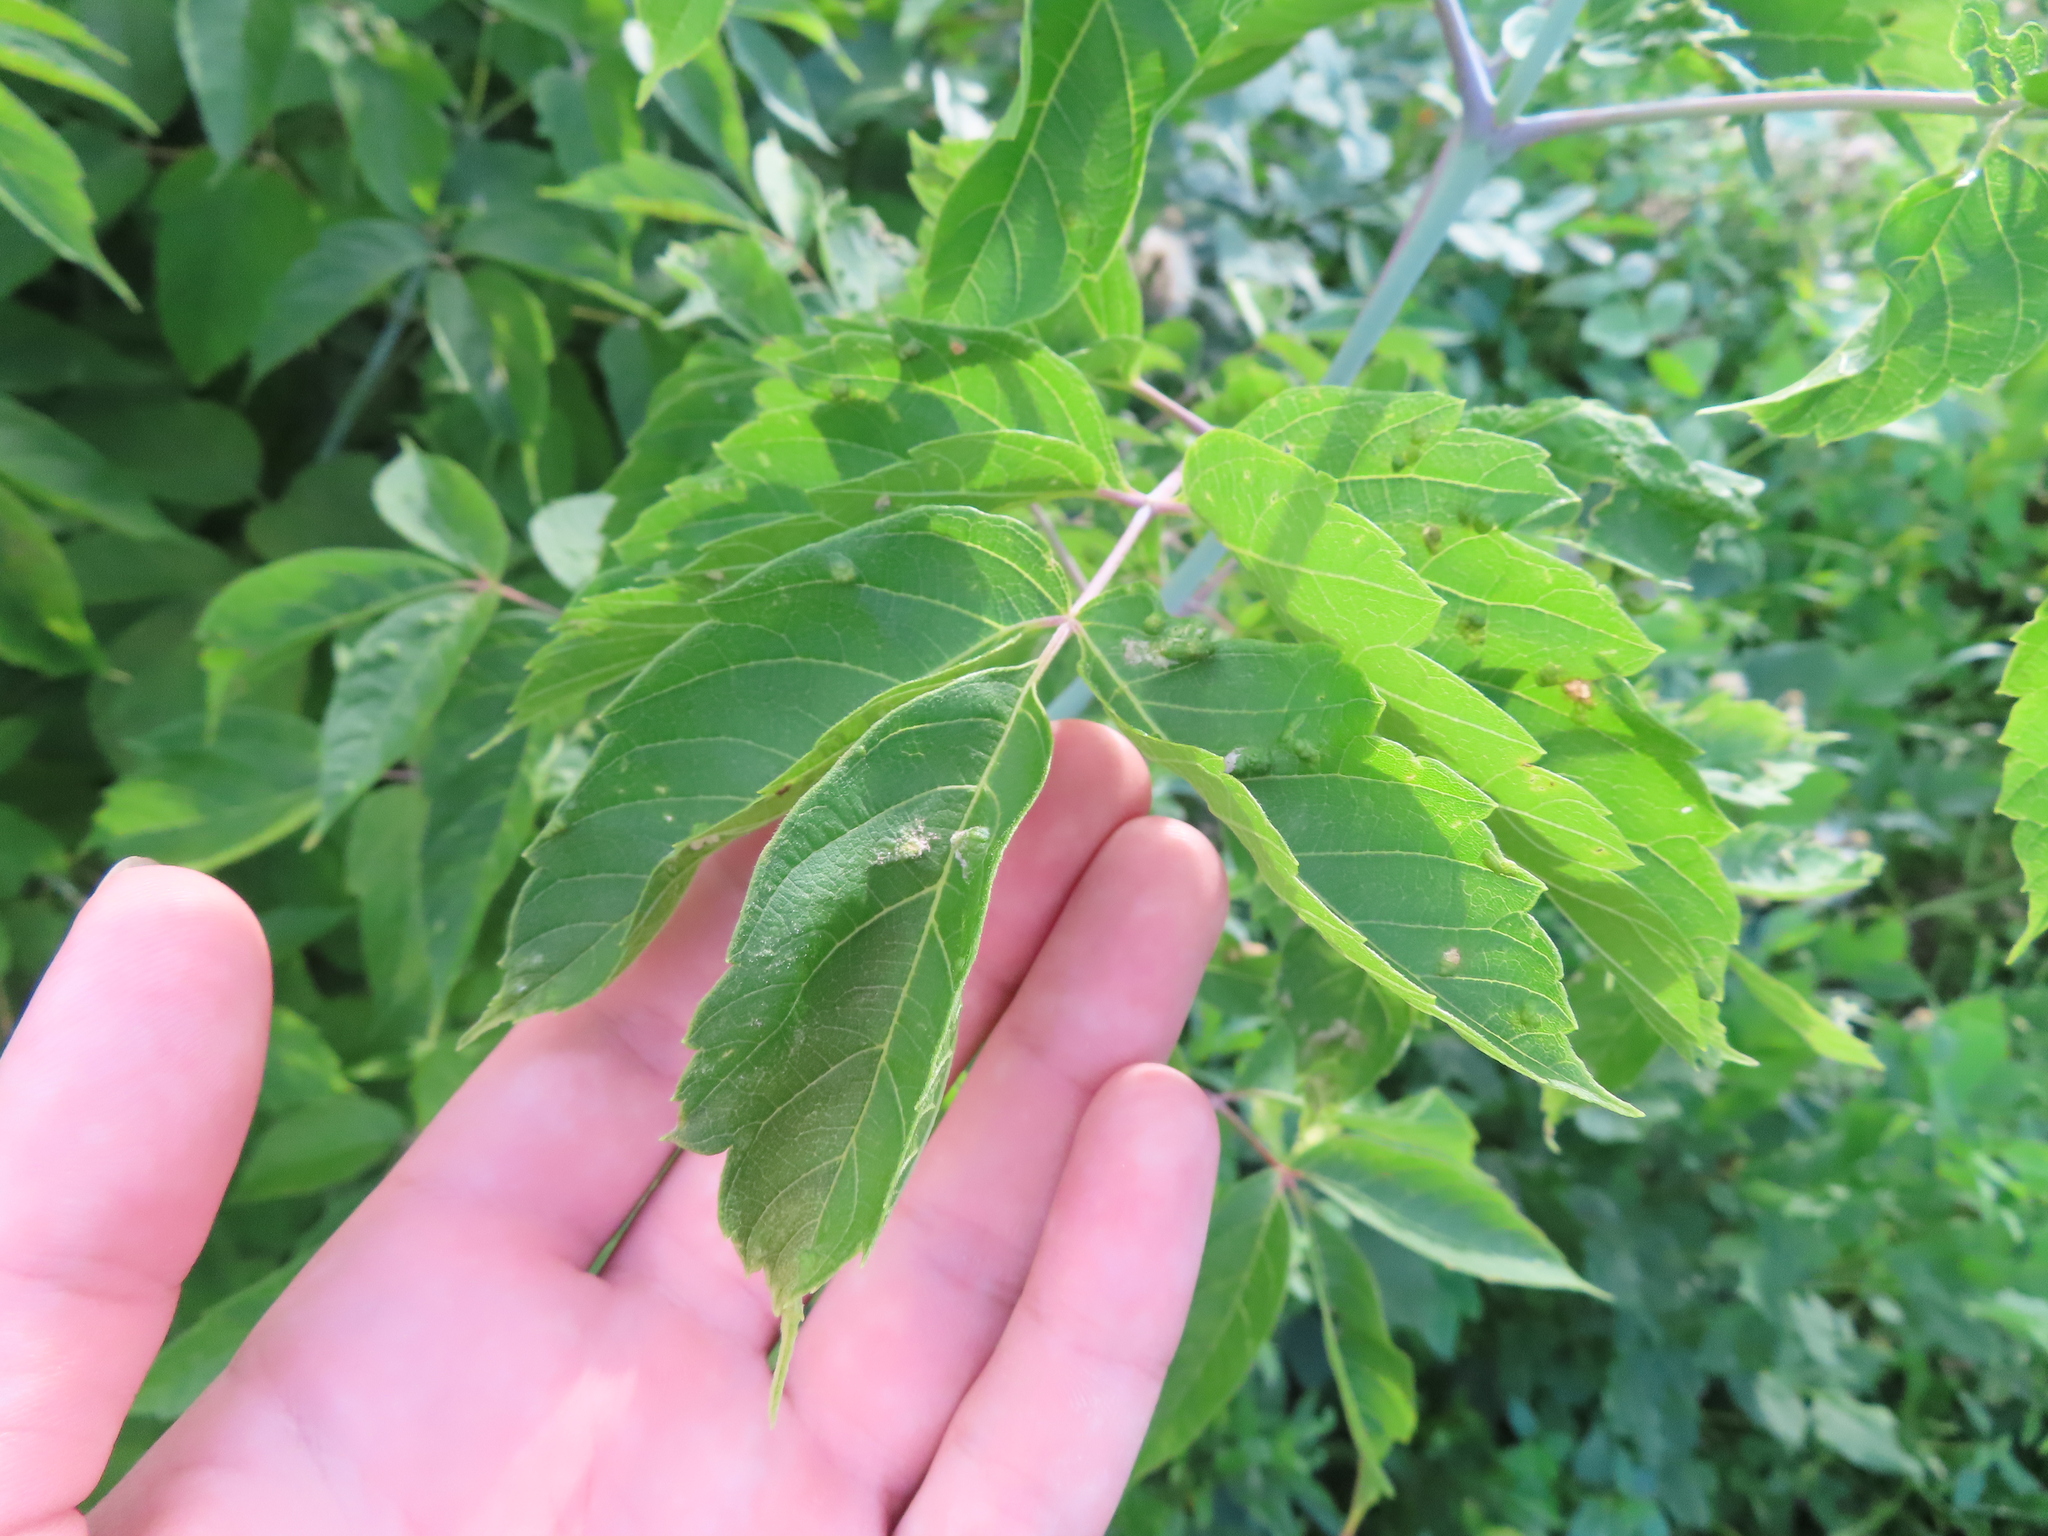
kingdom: Plantae
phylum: Tracheophyta
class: Magnoliopsida
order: Sapindales
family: Sapindaceae
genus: Acer
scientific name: Acer negundo
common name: Ashleaf maple
